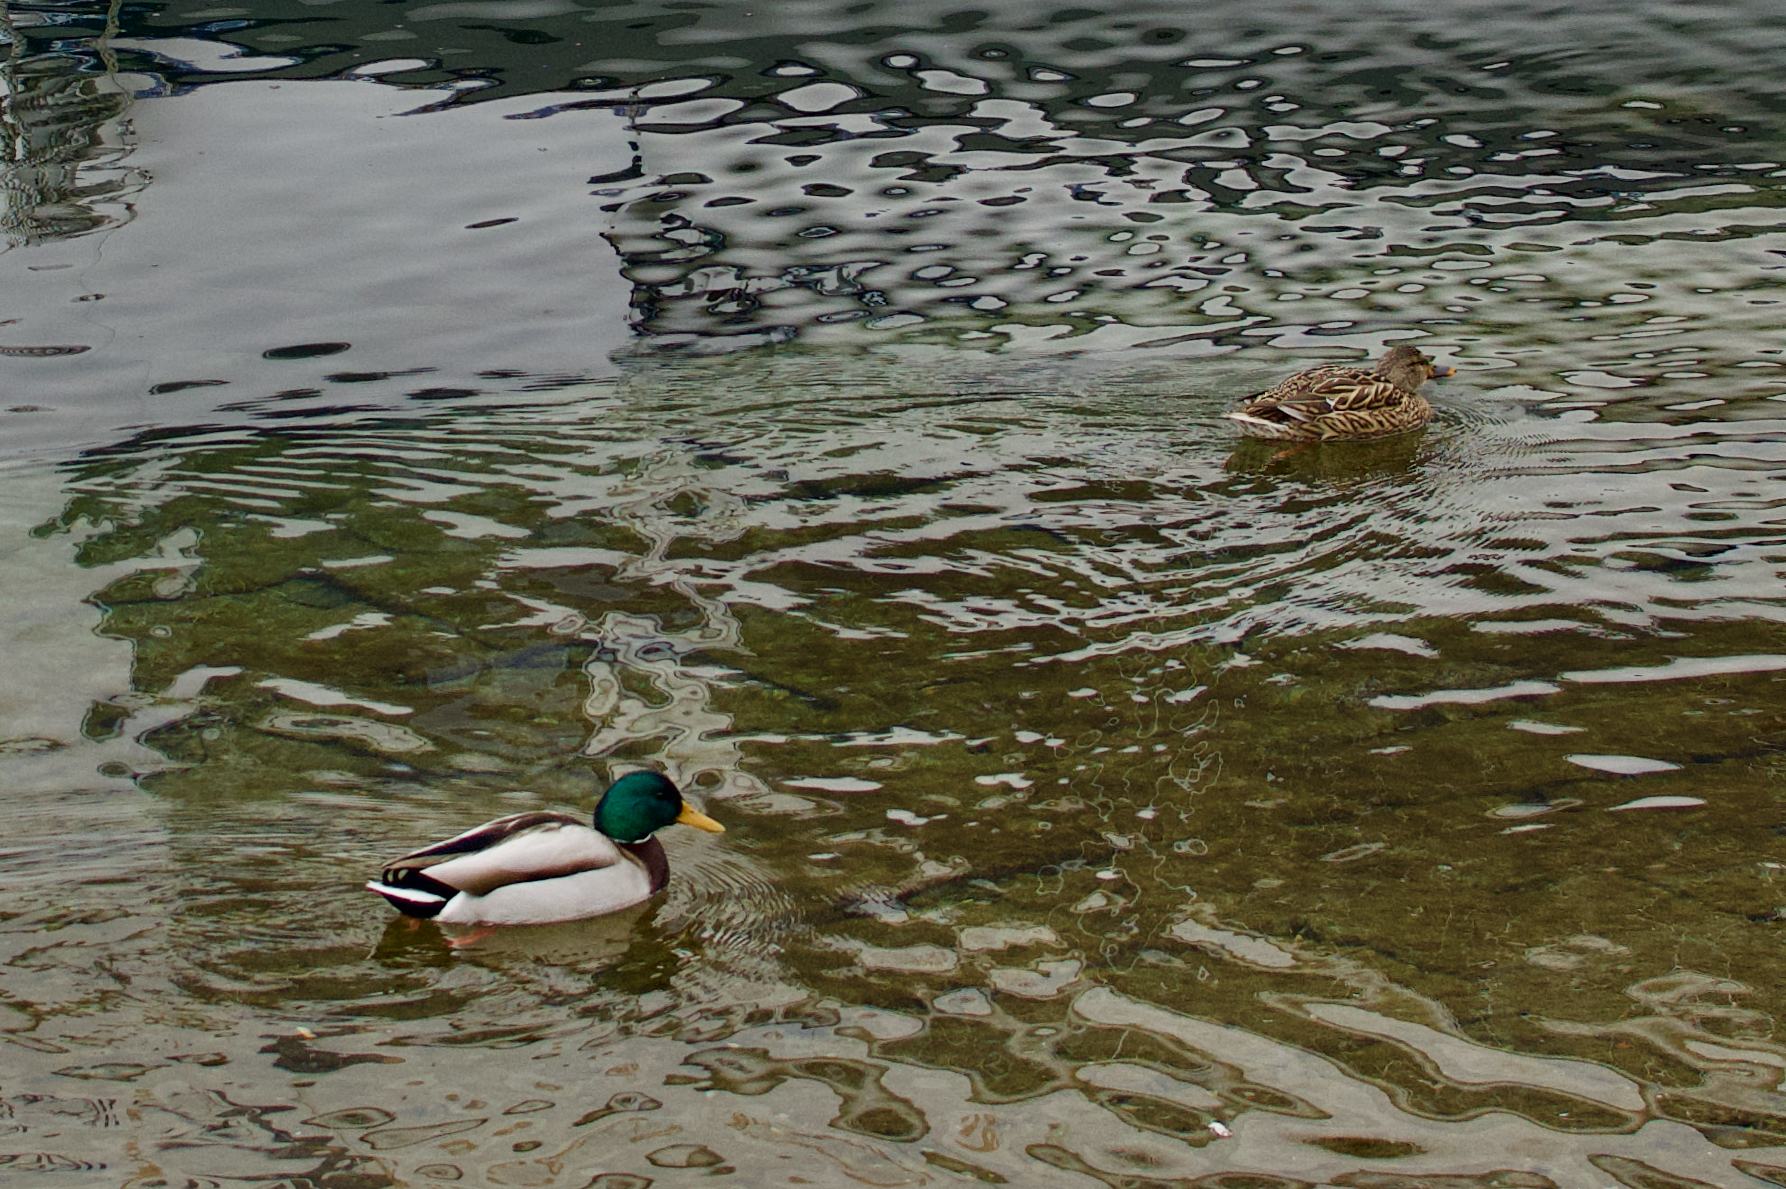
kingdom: Animalia
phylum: Chordata
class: Aves
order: Anseriformes
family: Anatidae
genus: Anas
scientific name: Anas platyrhynchos
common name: Mallard
